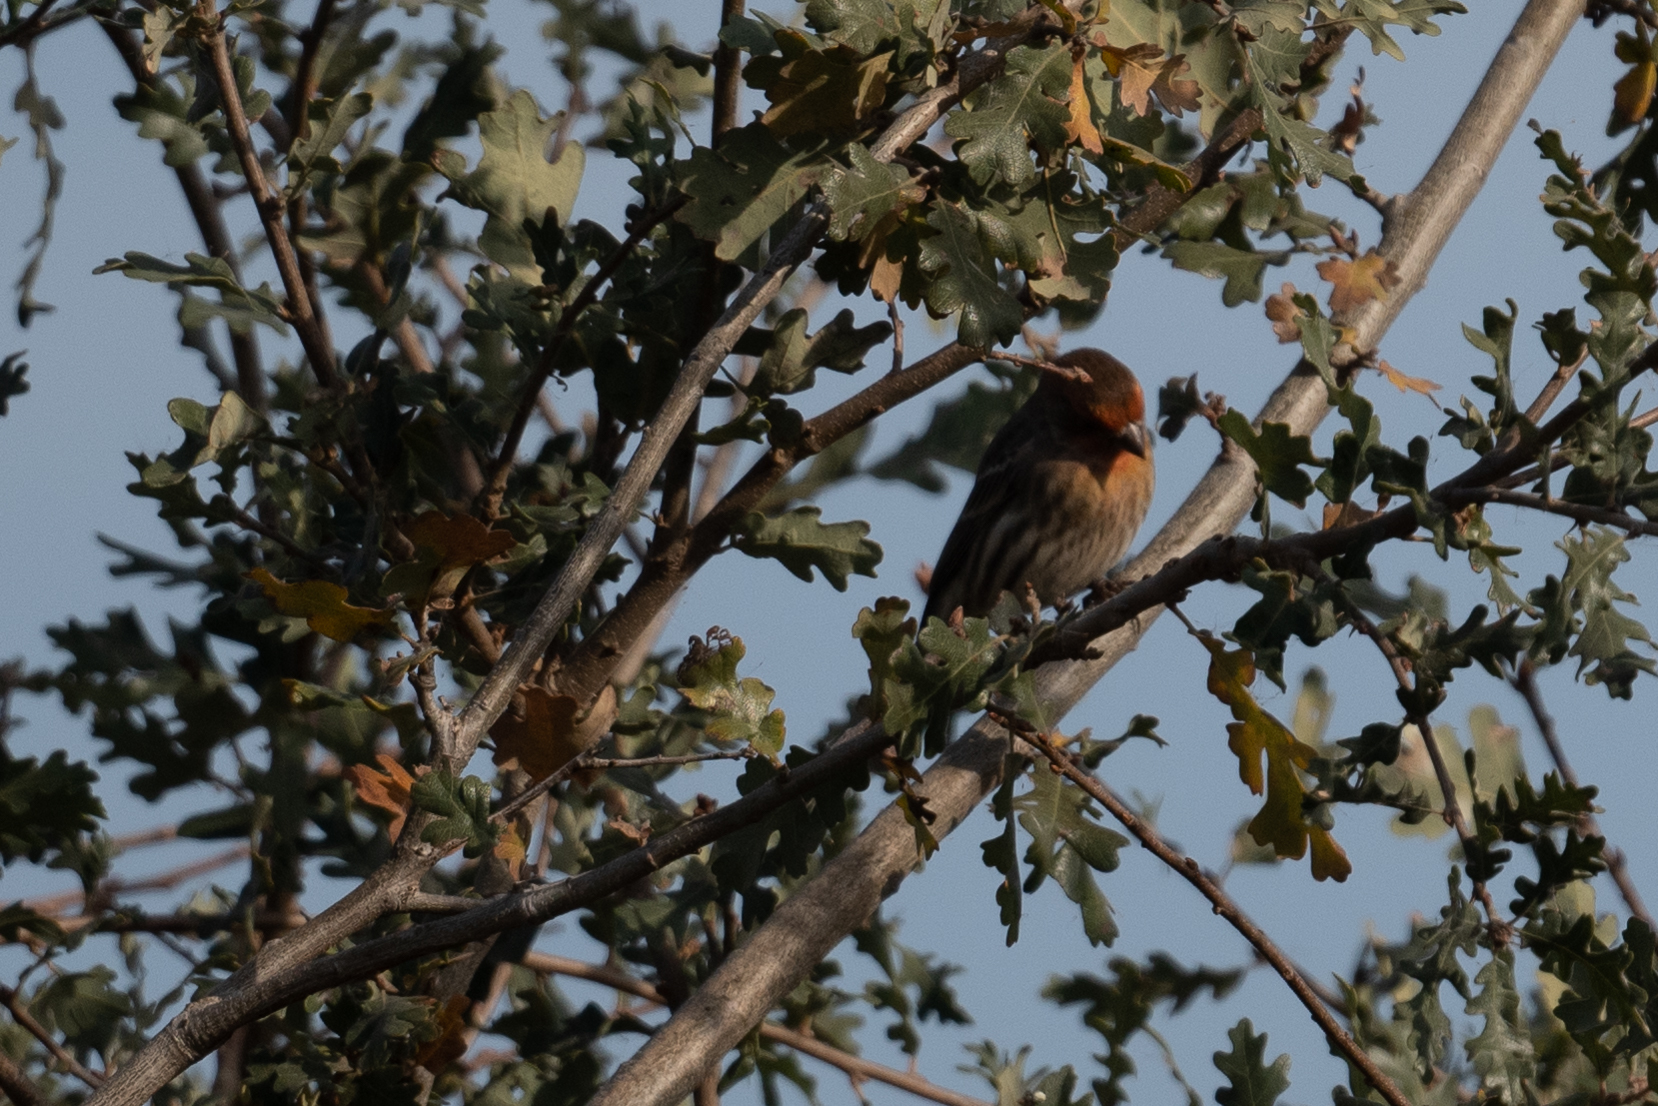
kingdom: Animalia
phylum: Chordata
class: Aves
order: Passeriformes
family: Fringillidae
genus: Haemorhous
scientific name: Haemorhous mexicanus
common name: House finch
